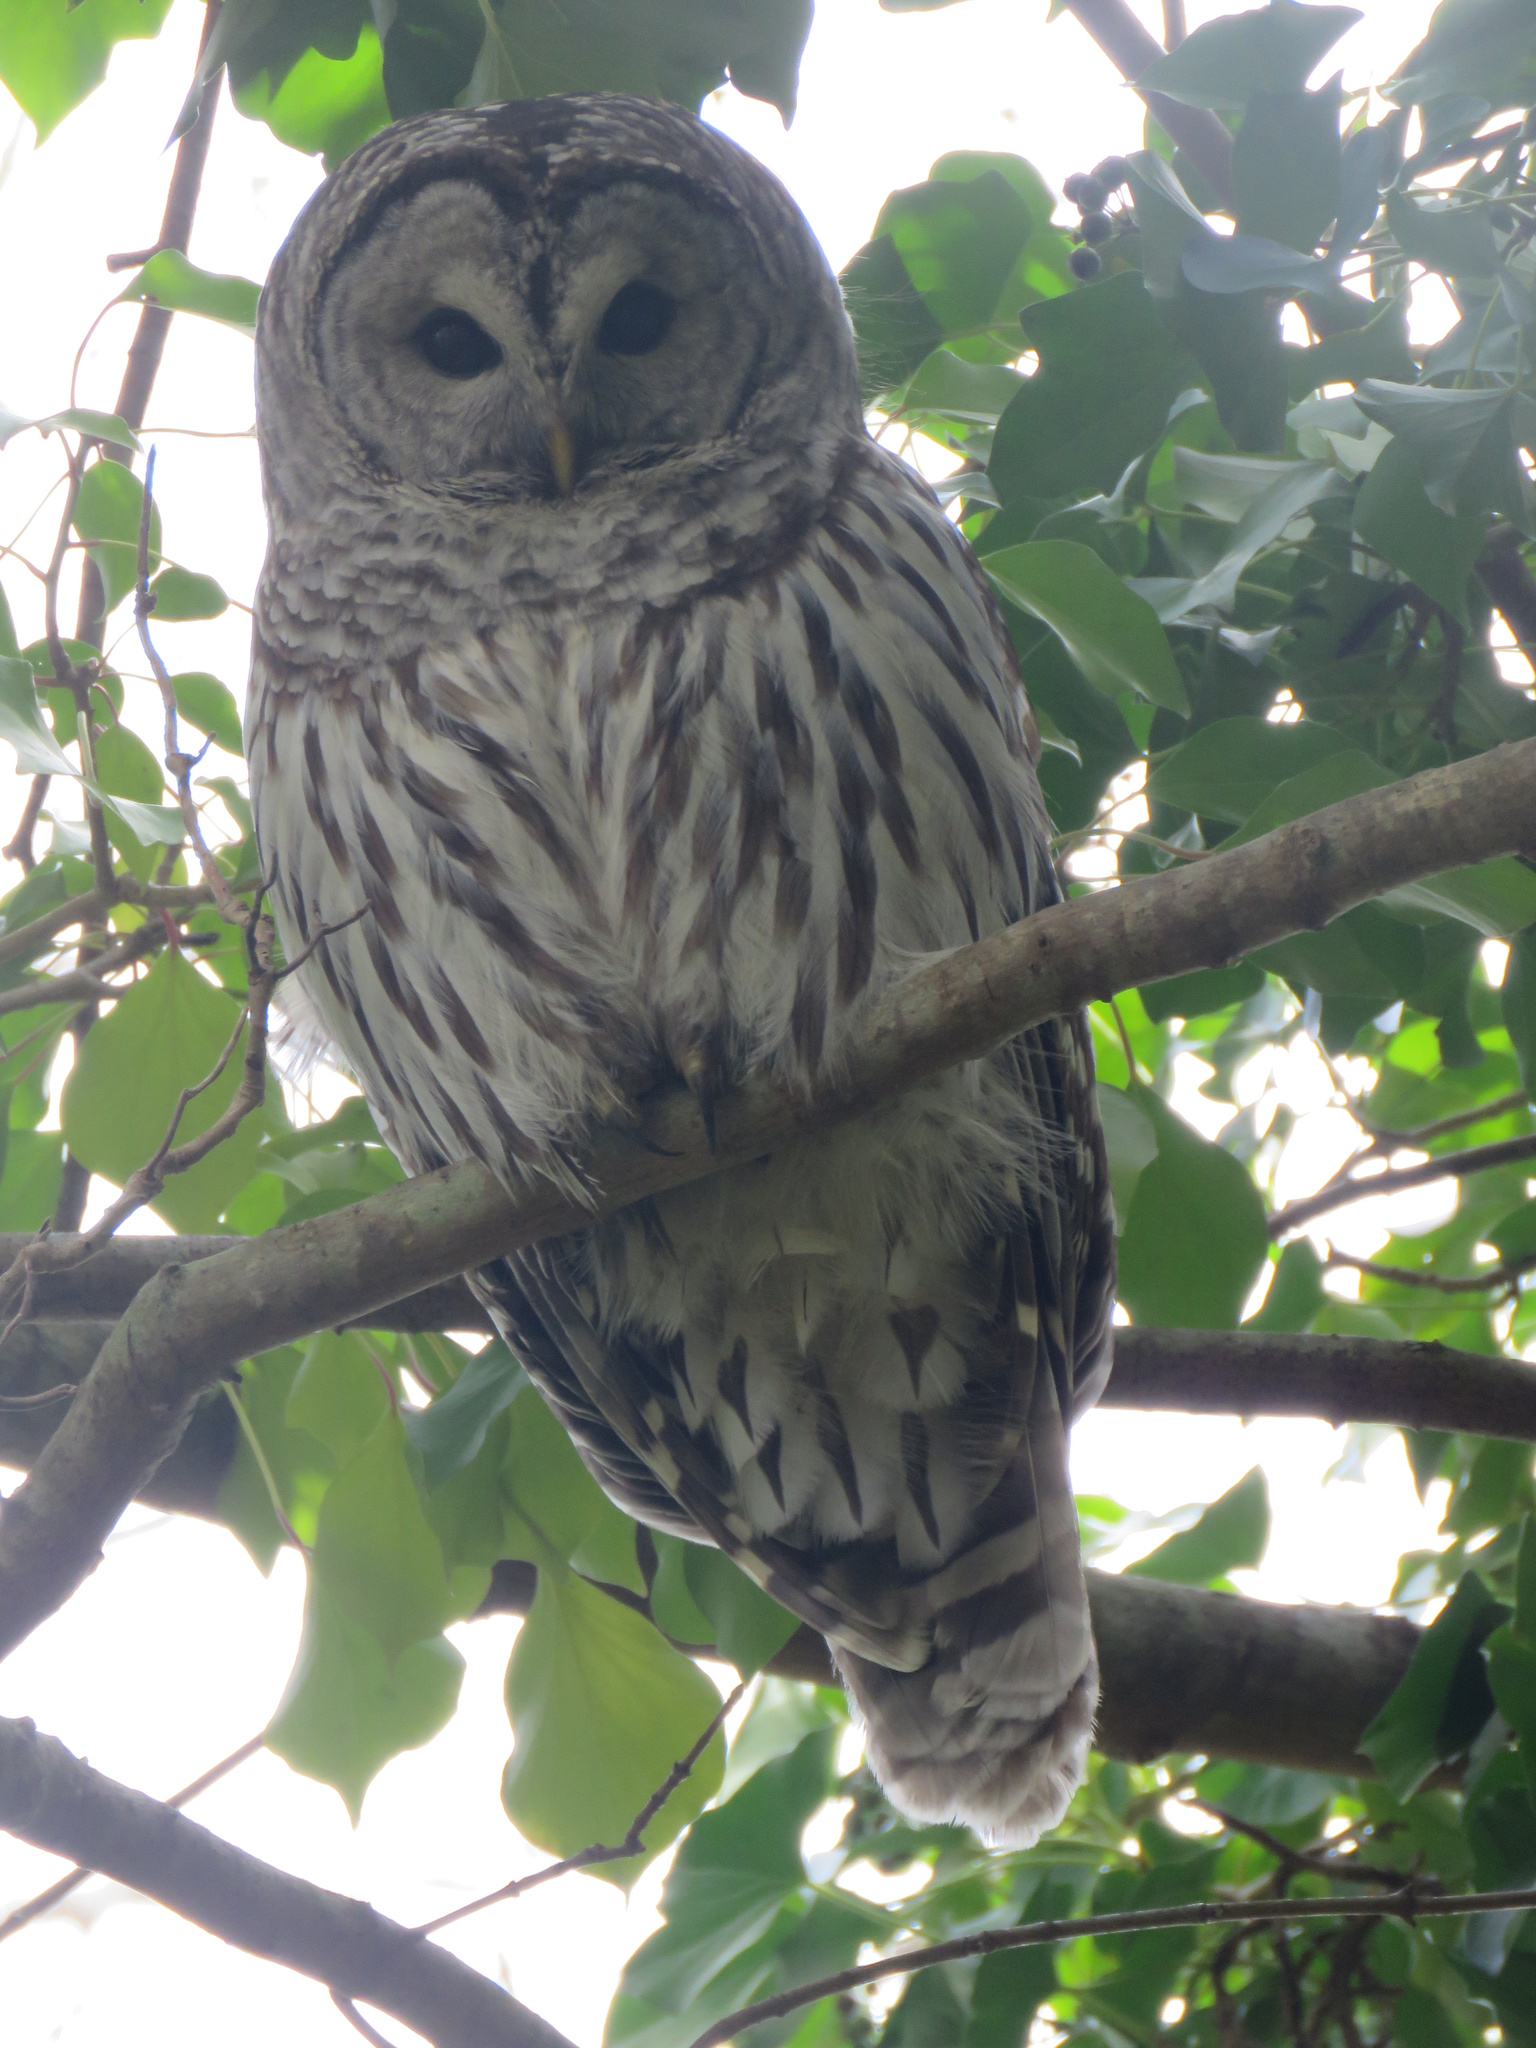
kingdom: Animalia
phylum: Chordata
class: Aves
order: Strigiformes
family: Strigidae
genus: Strix
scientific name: Strix varia
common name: Barred owl
